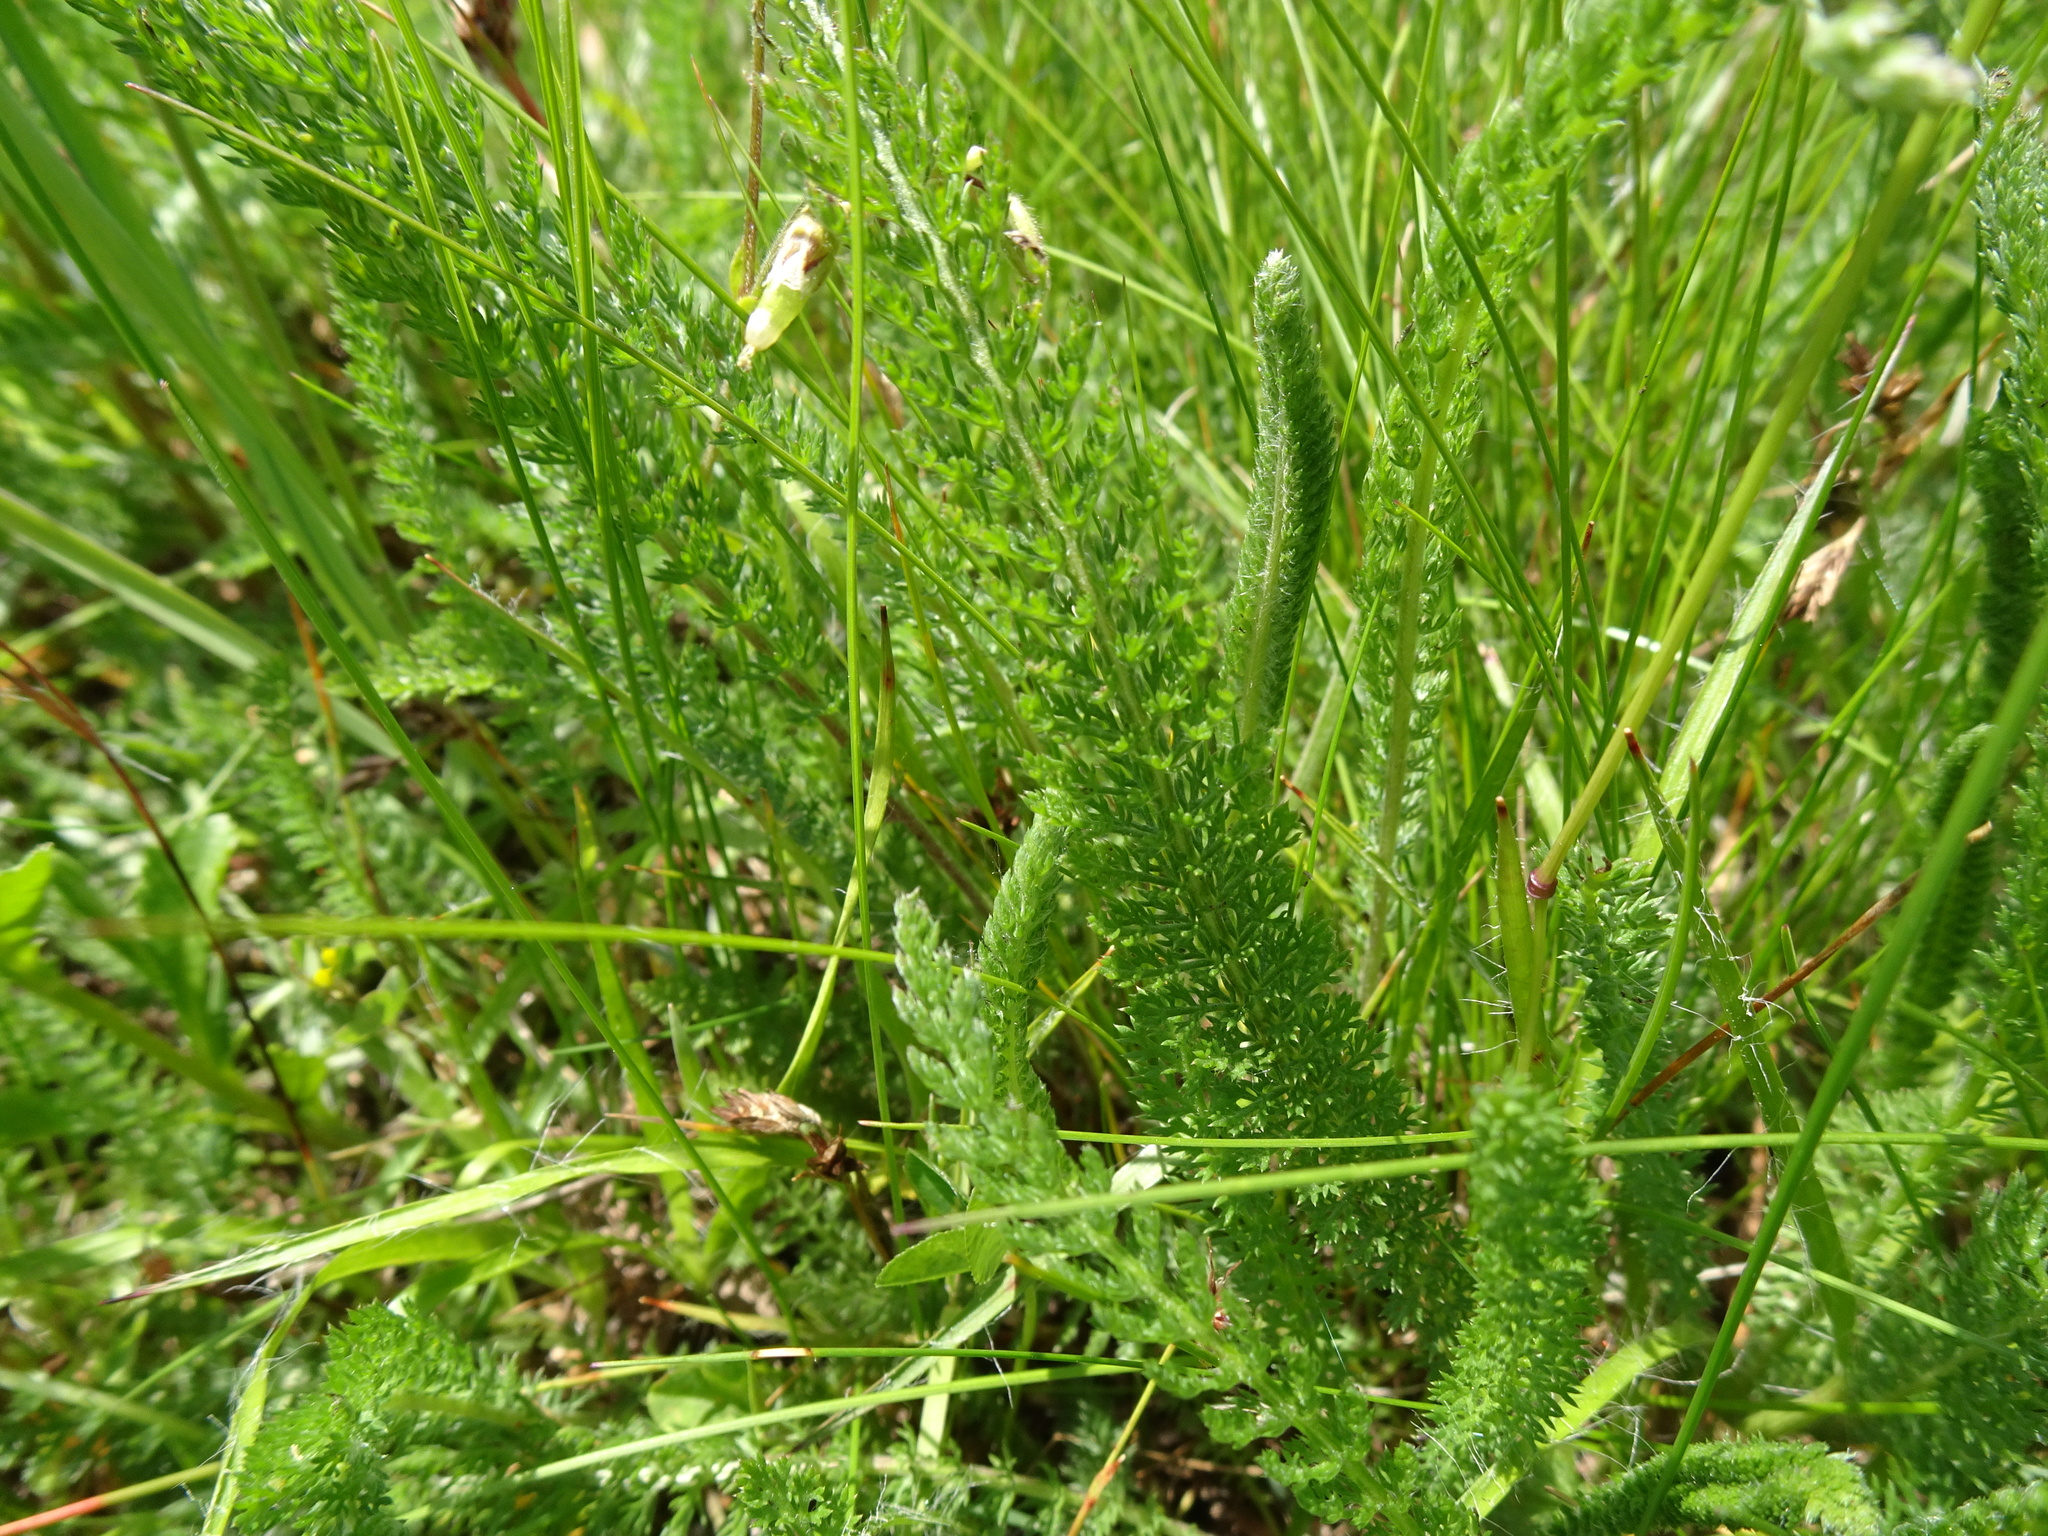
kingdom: Plantae
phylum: Tracheophyta
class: Magnoliopsida
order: Asterales
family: Asteraceae
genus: Achillea
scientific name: Achillea millefolium
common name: Yarrow
